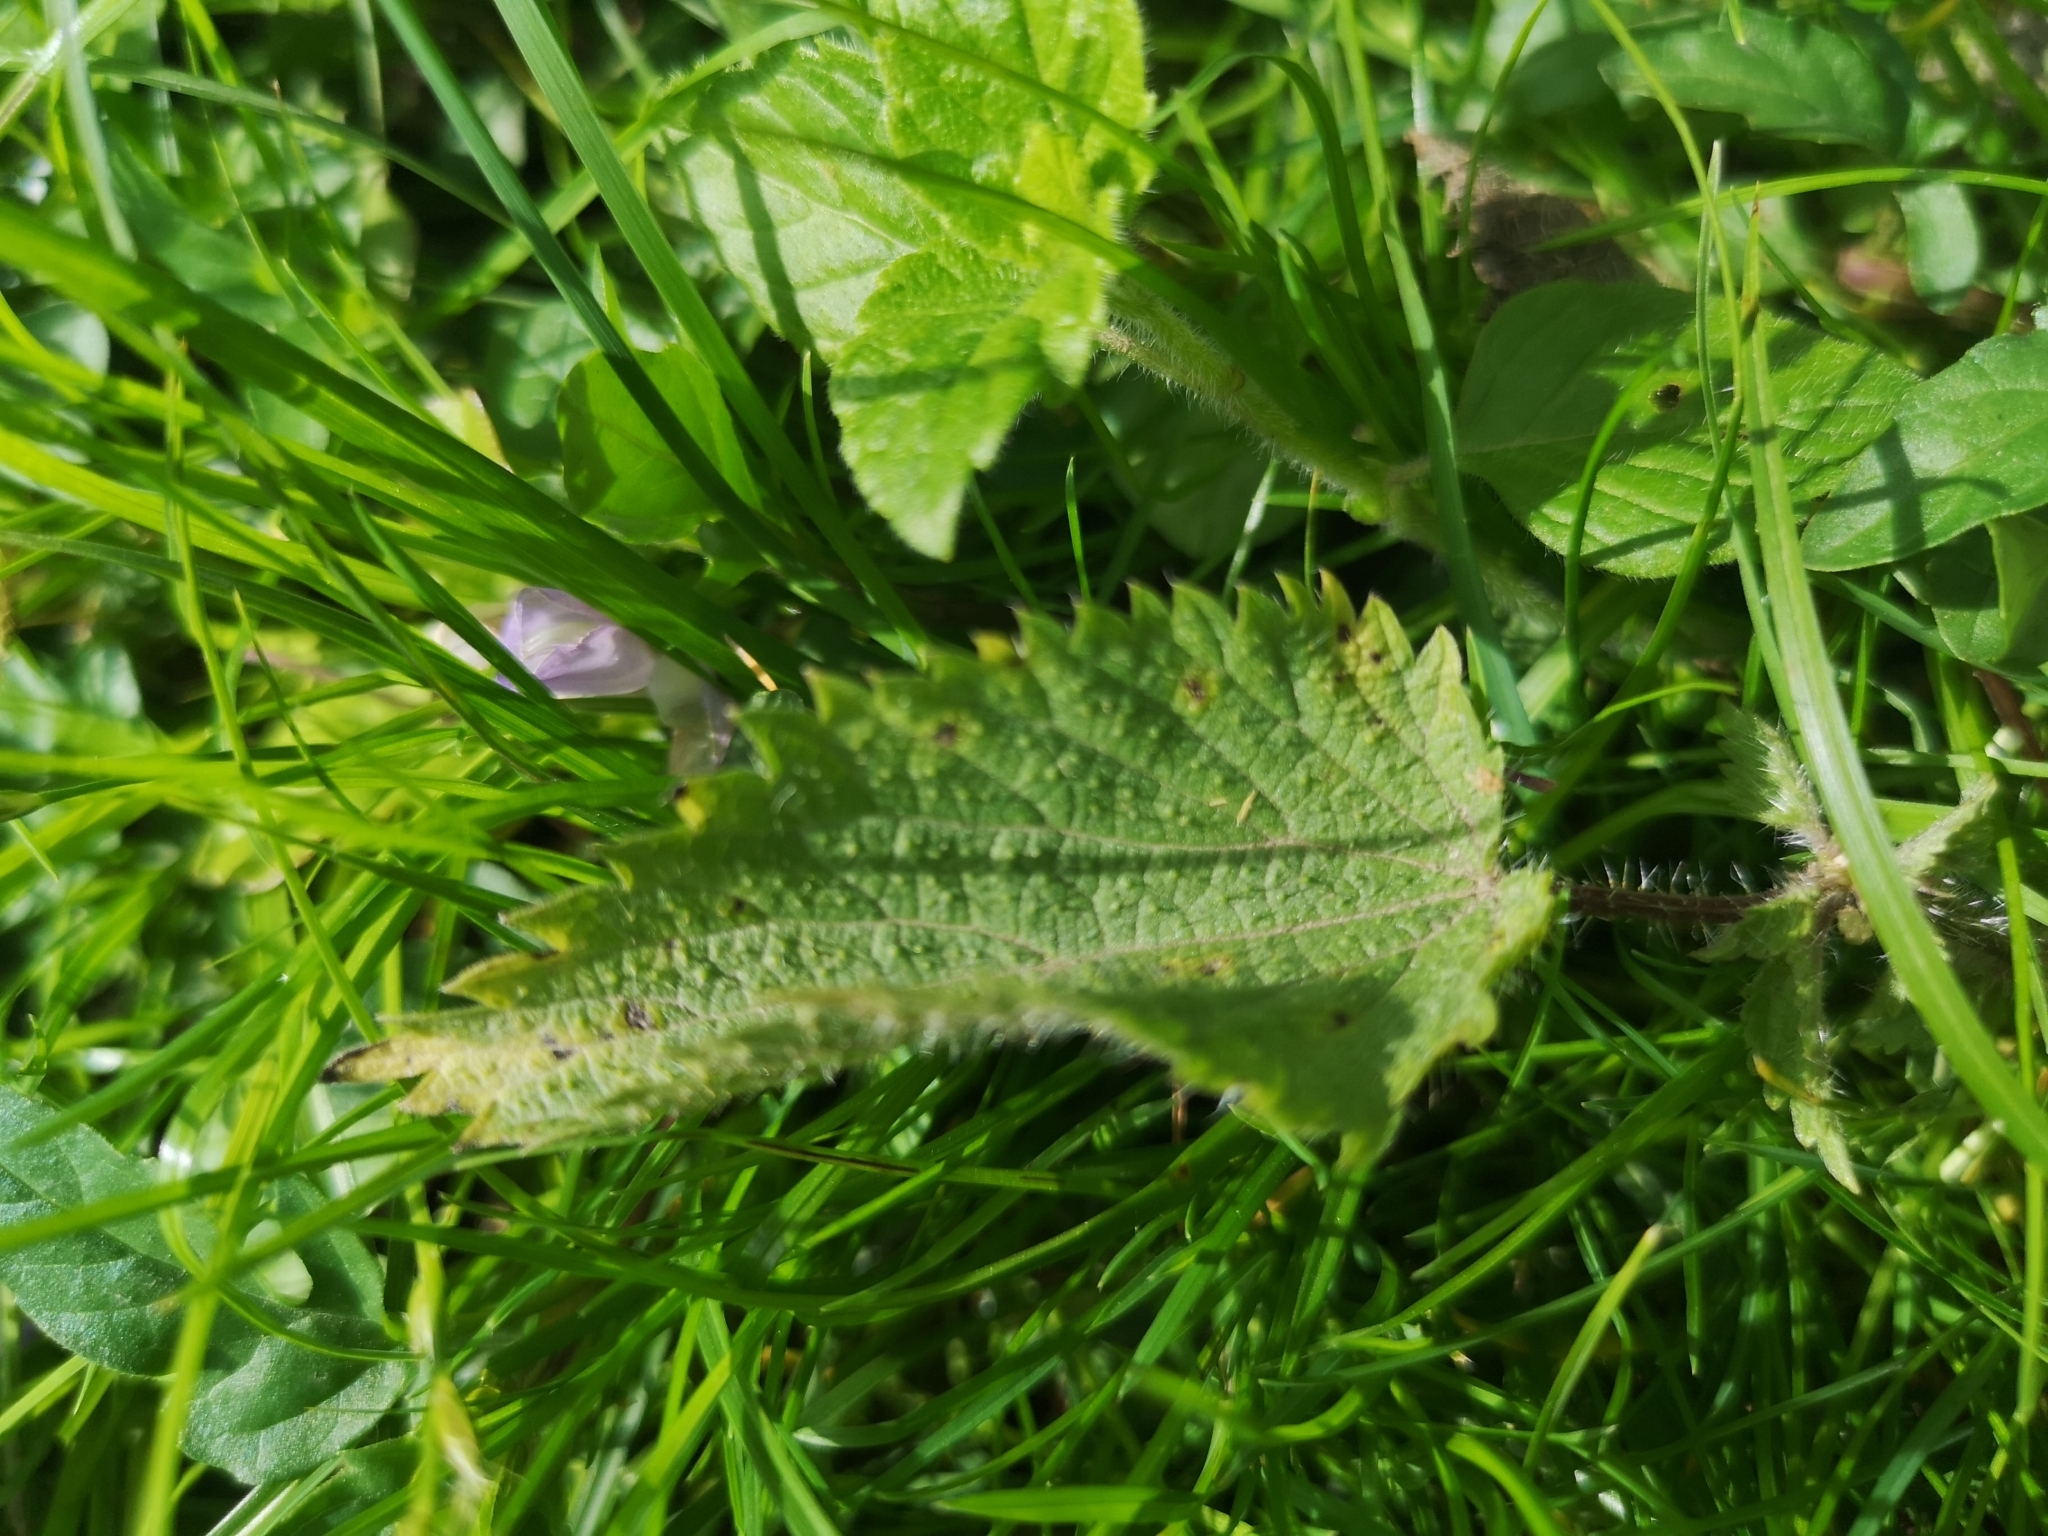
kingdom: Plantae
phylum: Tracheophyta
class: Magnoliopsida
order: Rosales
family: Urticaceae
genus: Urtica
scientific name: Urtica dioica
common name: Common nettle
